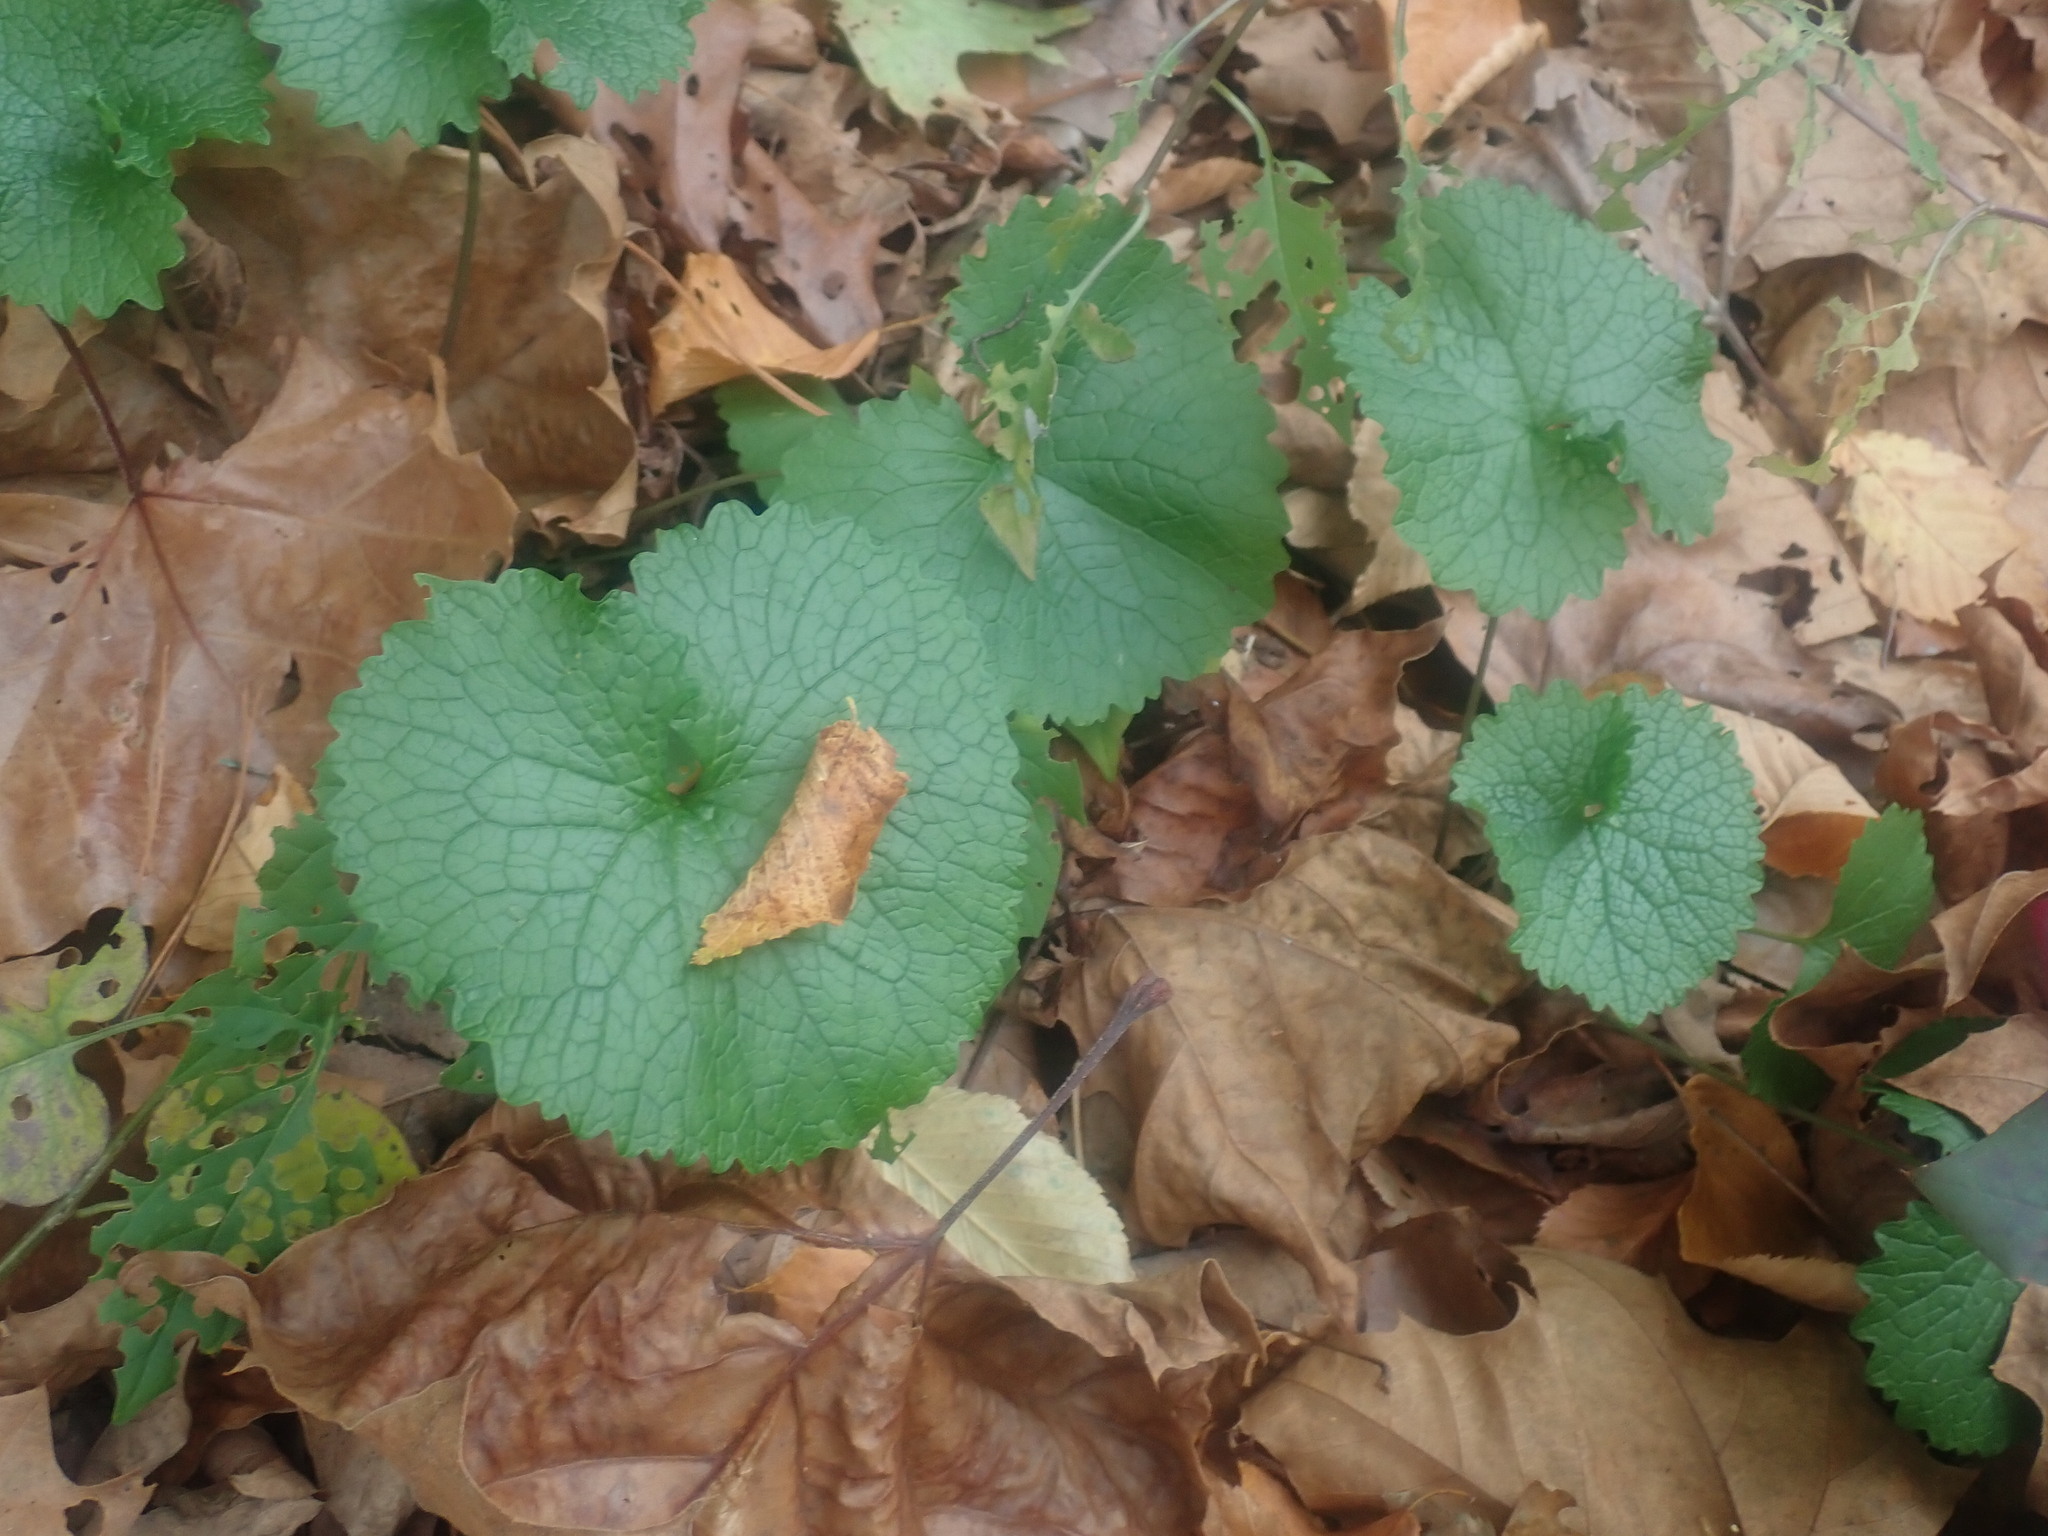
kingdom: Plantae
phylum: Tracheophyta
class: Magnoliopsida
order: Brassicales
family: Brassicaceae
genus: Alliaria
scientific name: Alliaria petiolata
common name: Garlic mustard
